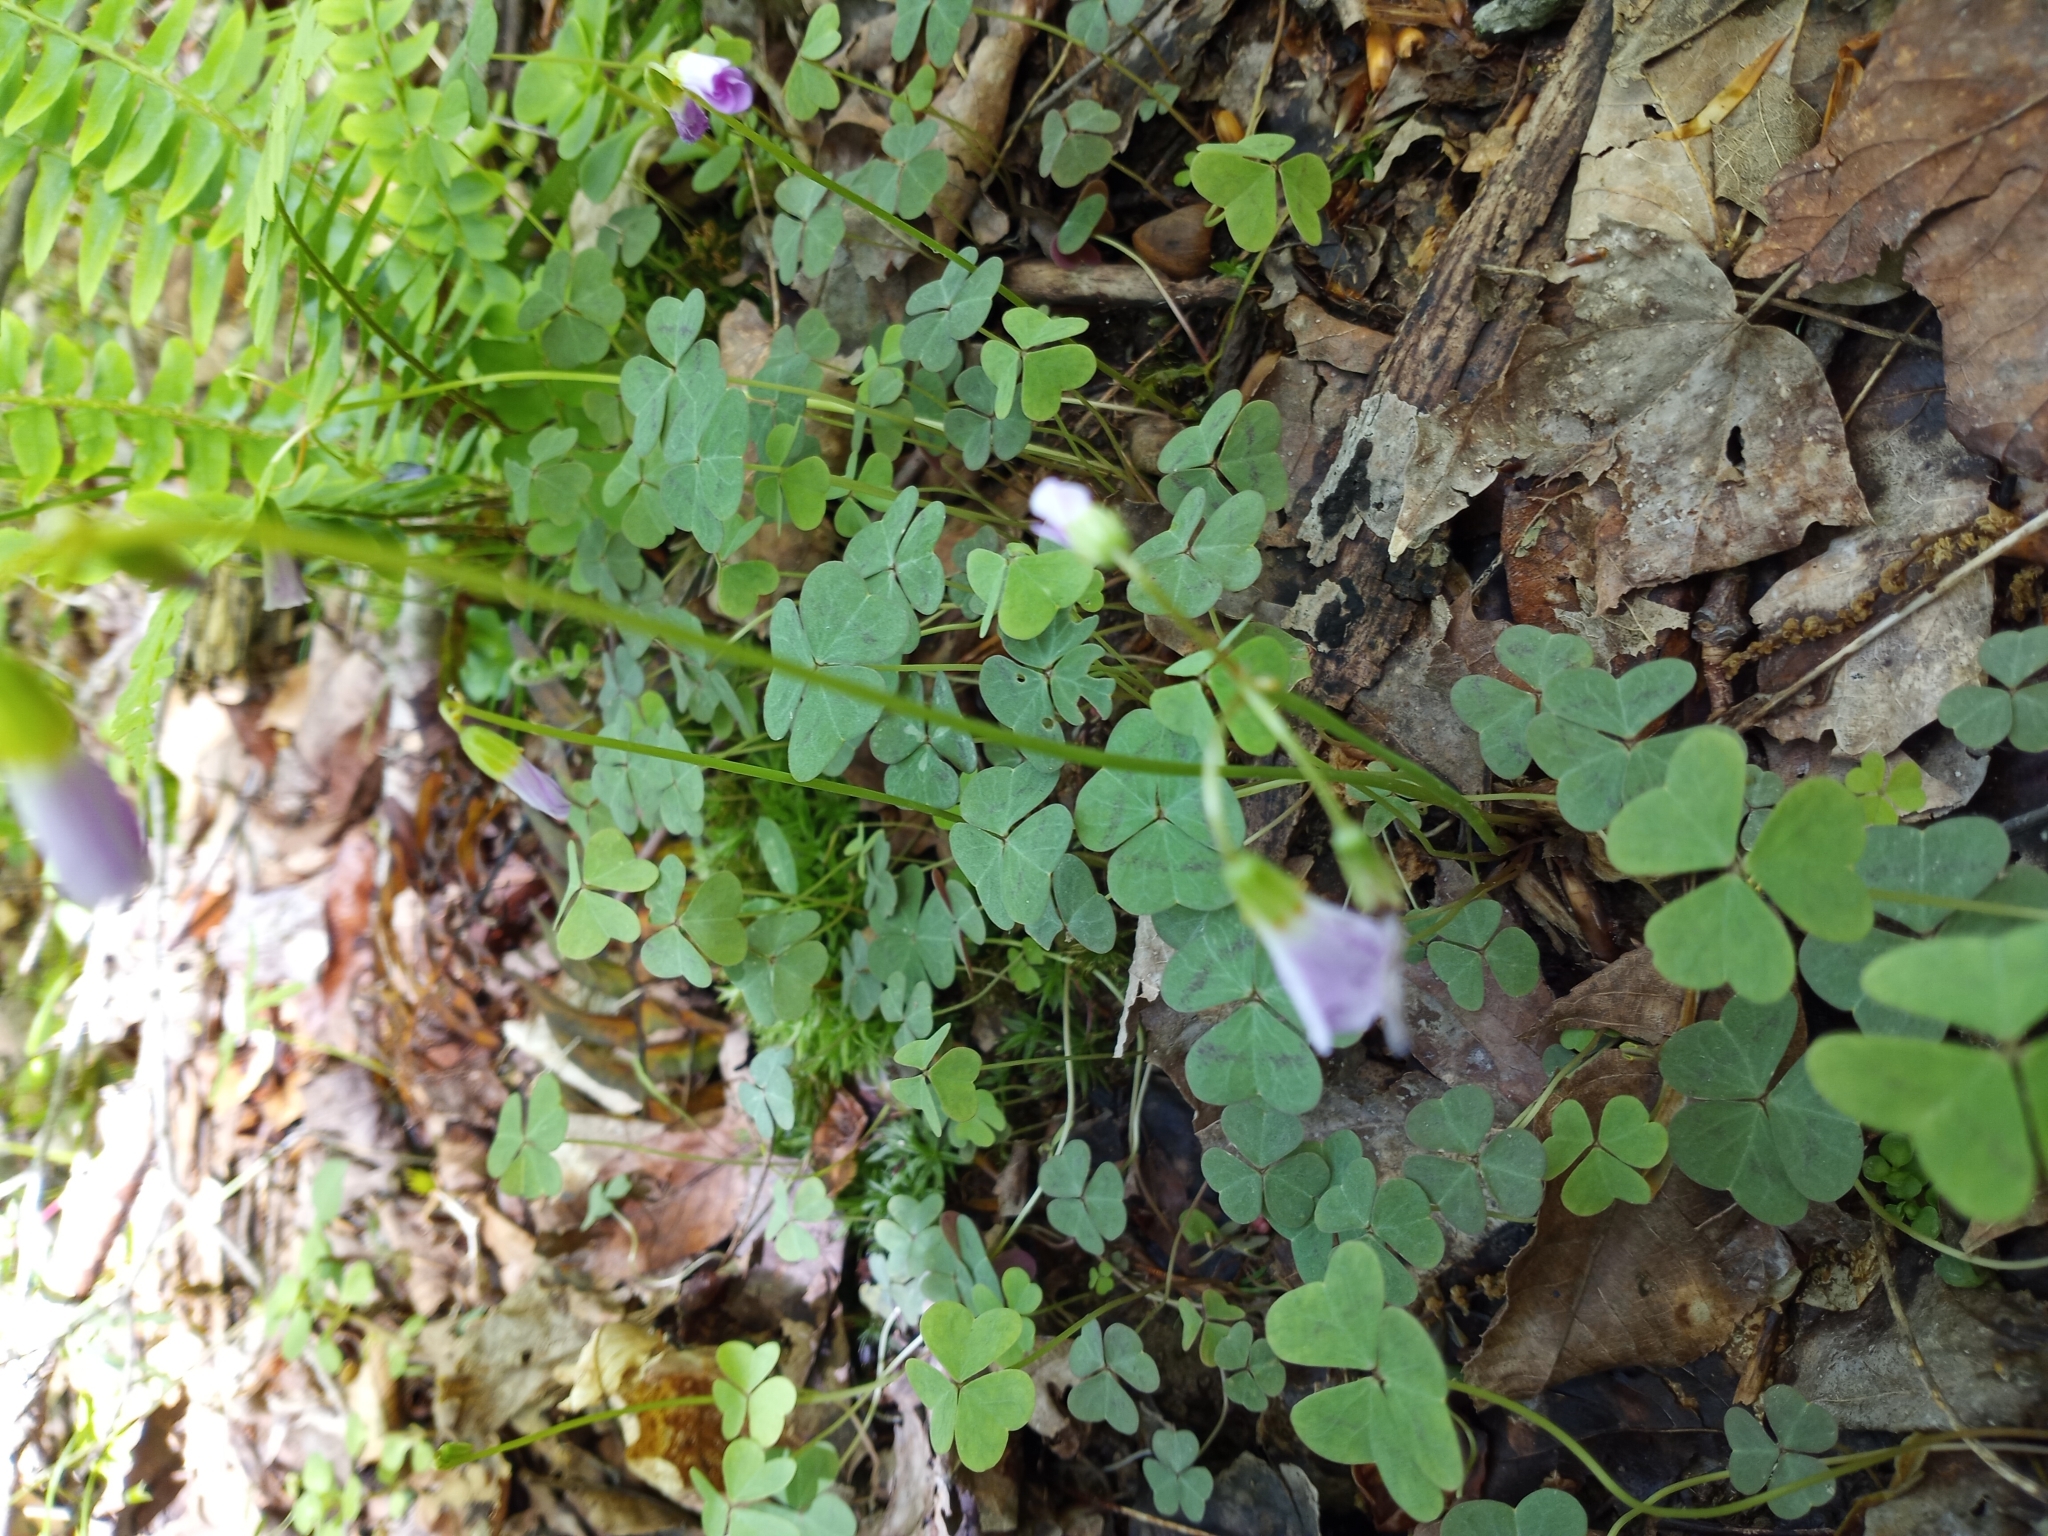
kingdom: Plantae
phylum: Tracheophyta
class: Magnoliopsida
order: Oxalidales
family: Oxalidaceae
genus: Oxalis
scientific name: Oxalis violacea
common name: Violet wood-sorrel
